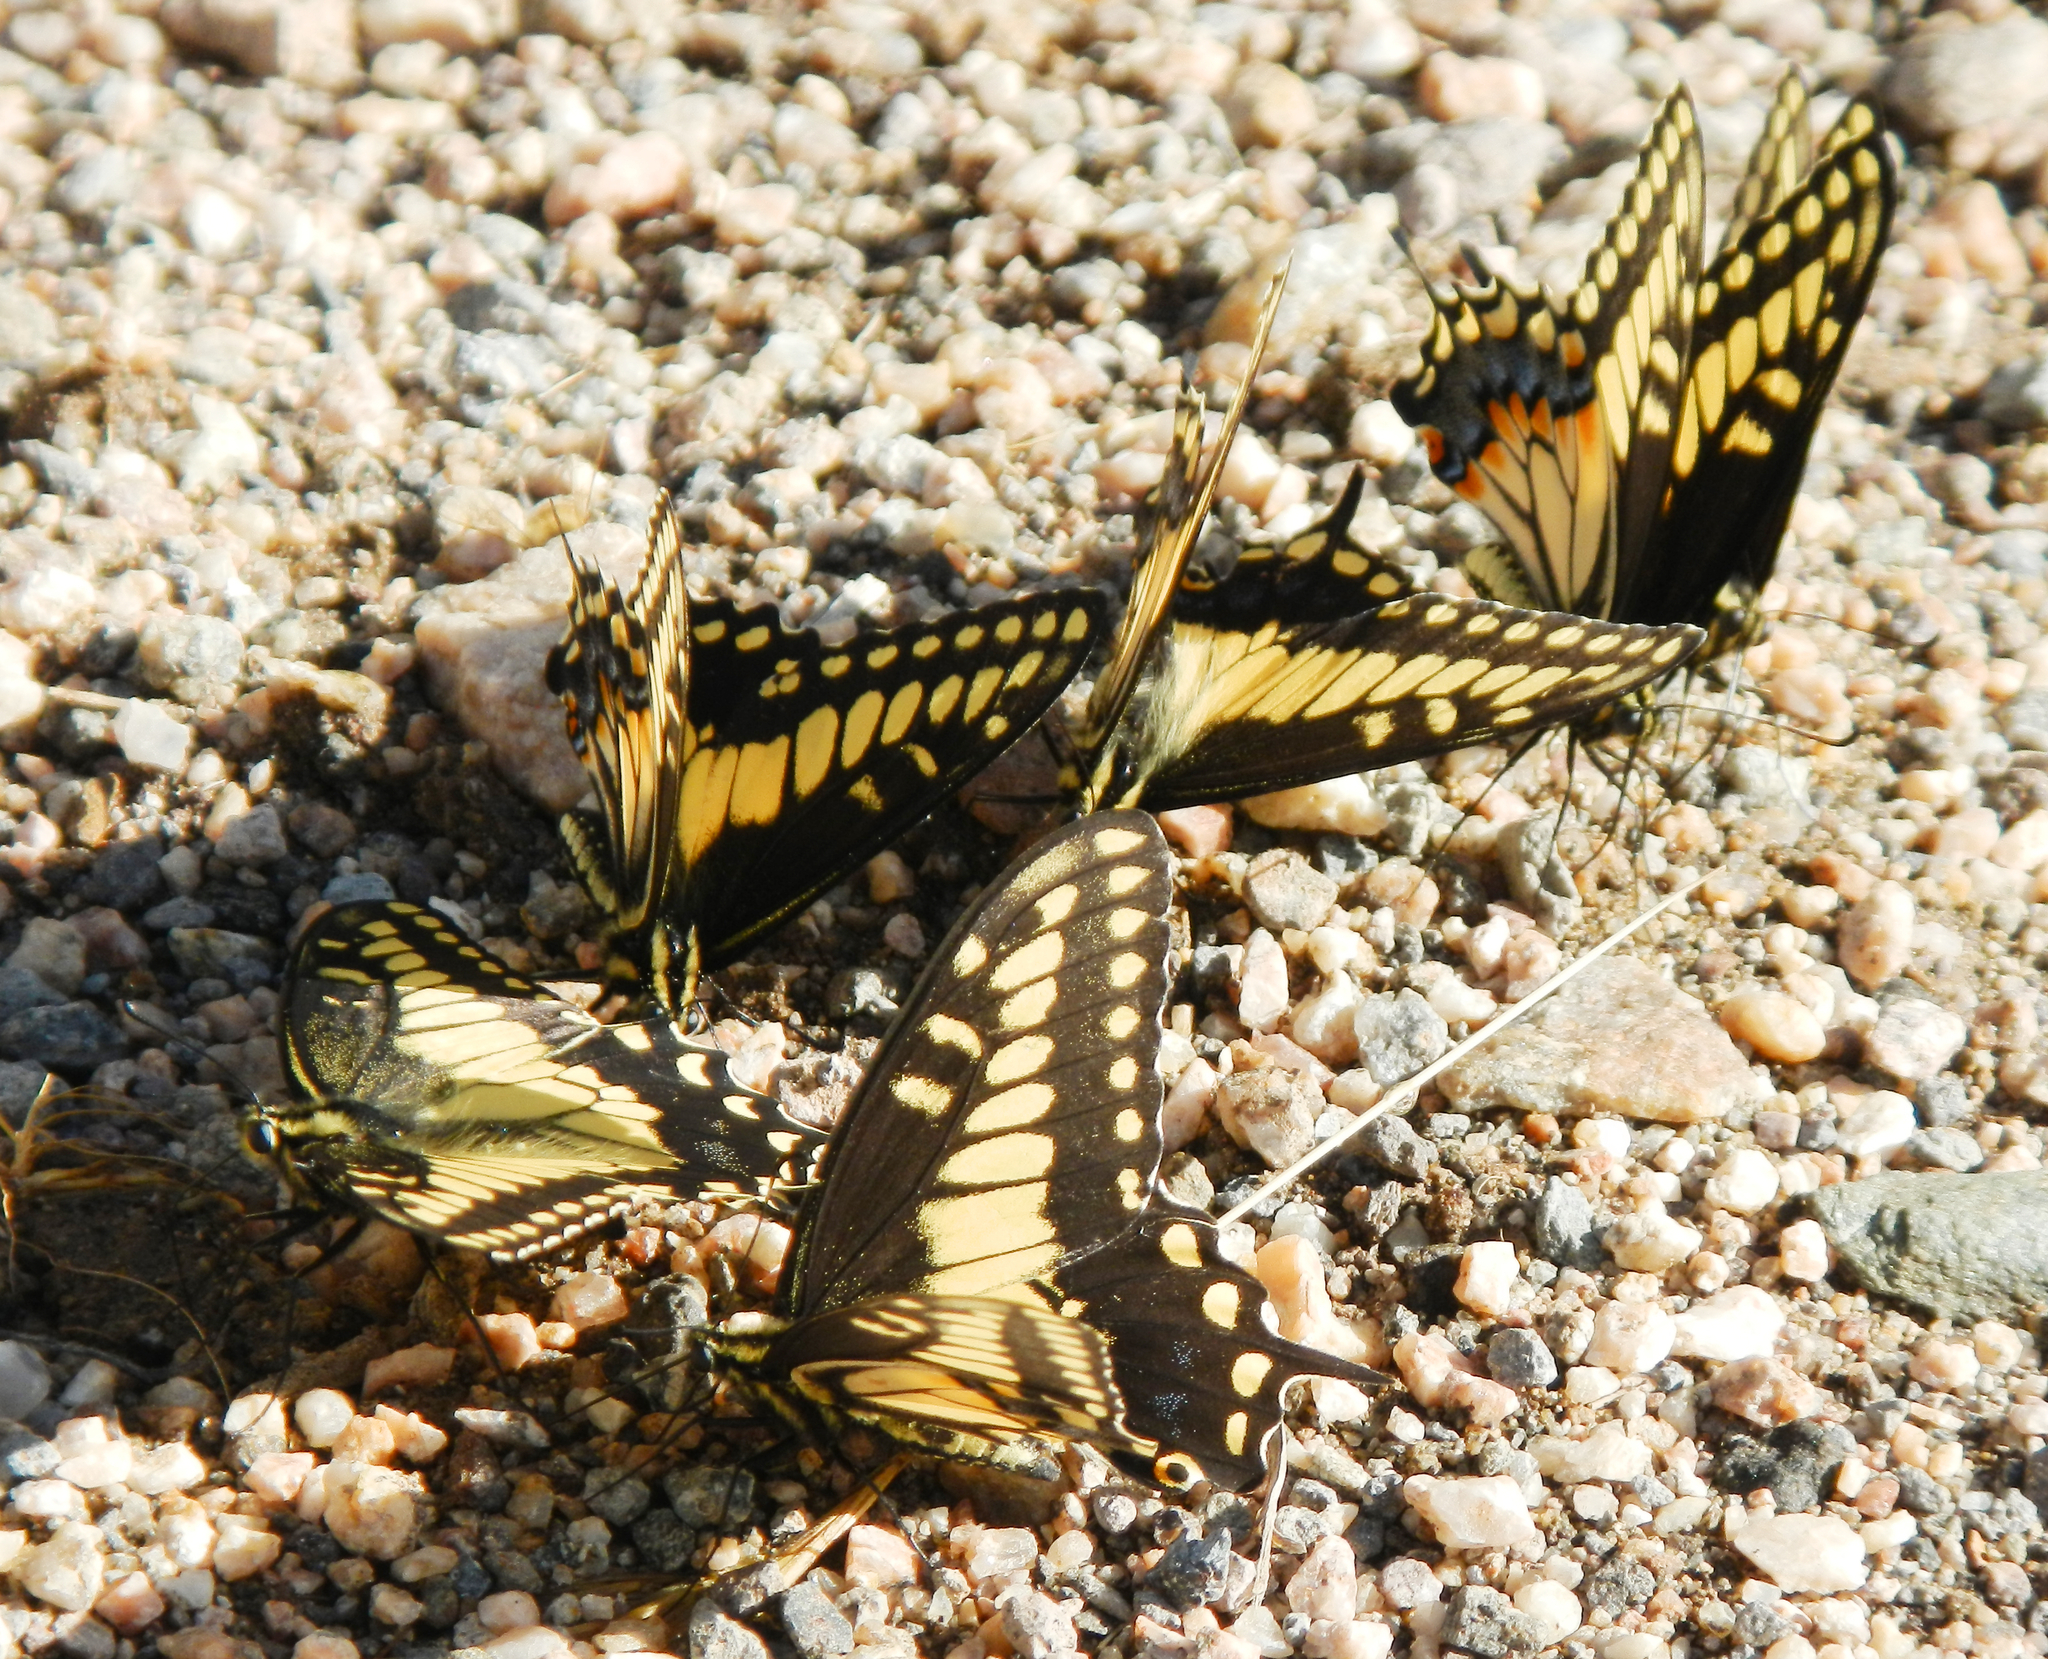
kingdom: Animalia
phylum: Arthropoda
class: Insecta
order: Lepidoptera
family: Papilionidae
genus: Papilio
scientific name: Papilio polyxenes
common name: Black swallowtail
